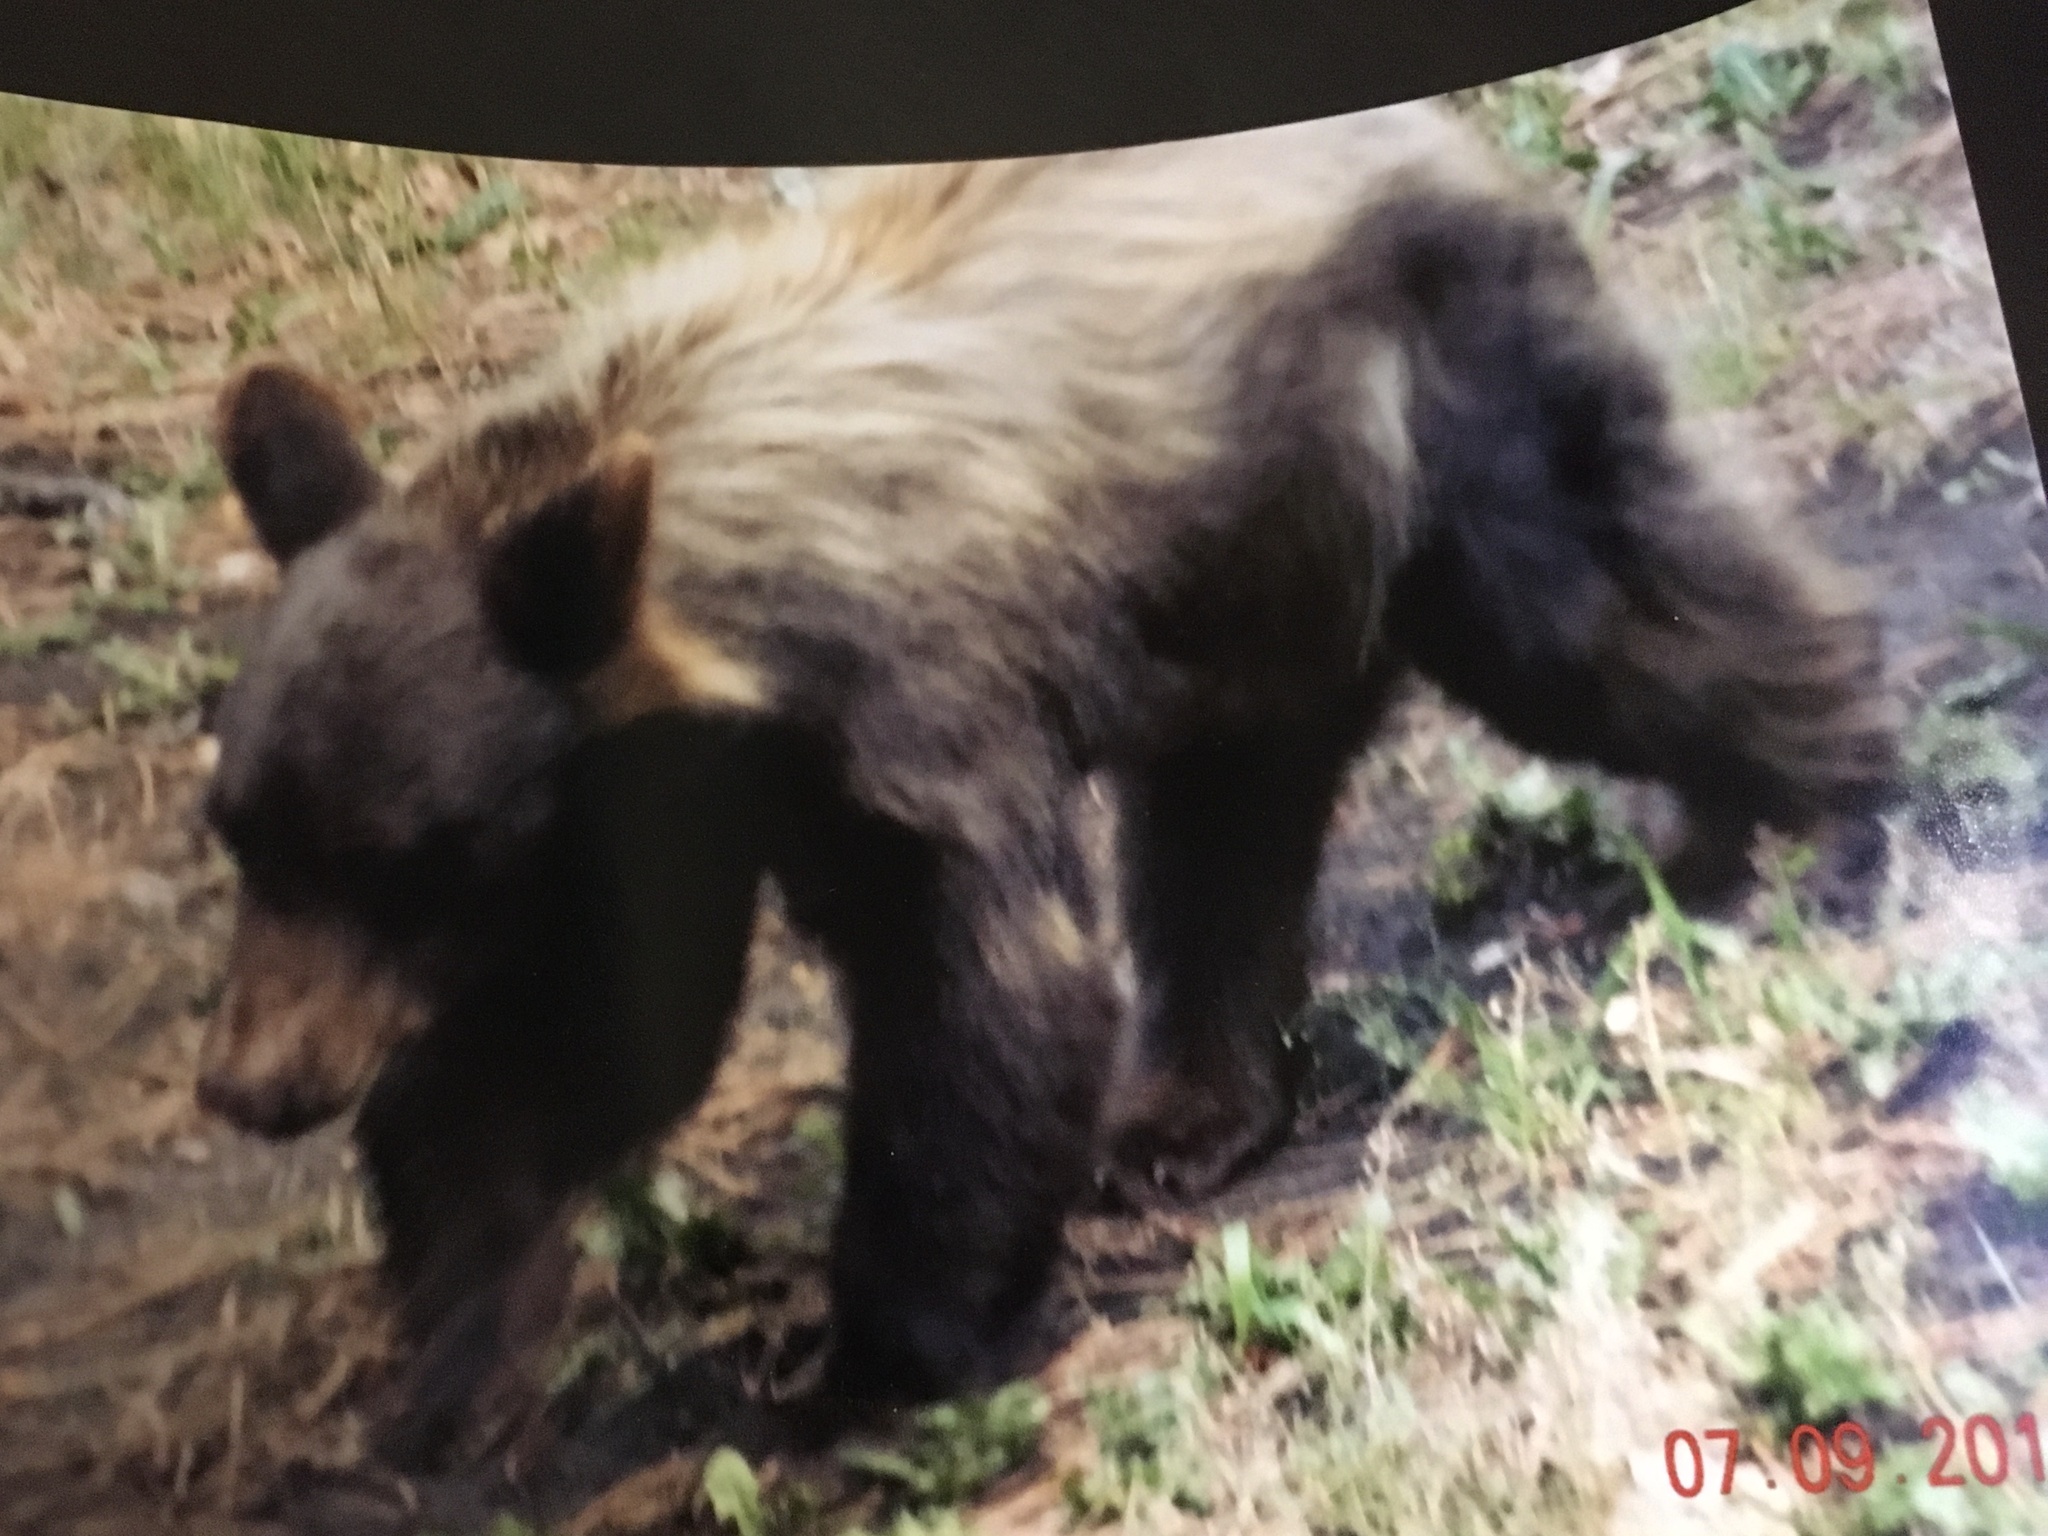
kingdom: Animalia
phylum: Chordata
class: Mammalia
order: Carnivora
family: Ursidae
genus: Ursus
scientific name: Ursus americanus
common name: American black bear
